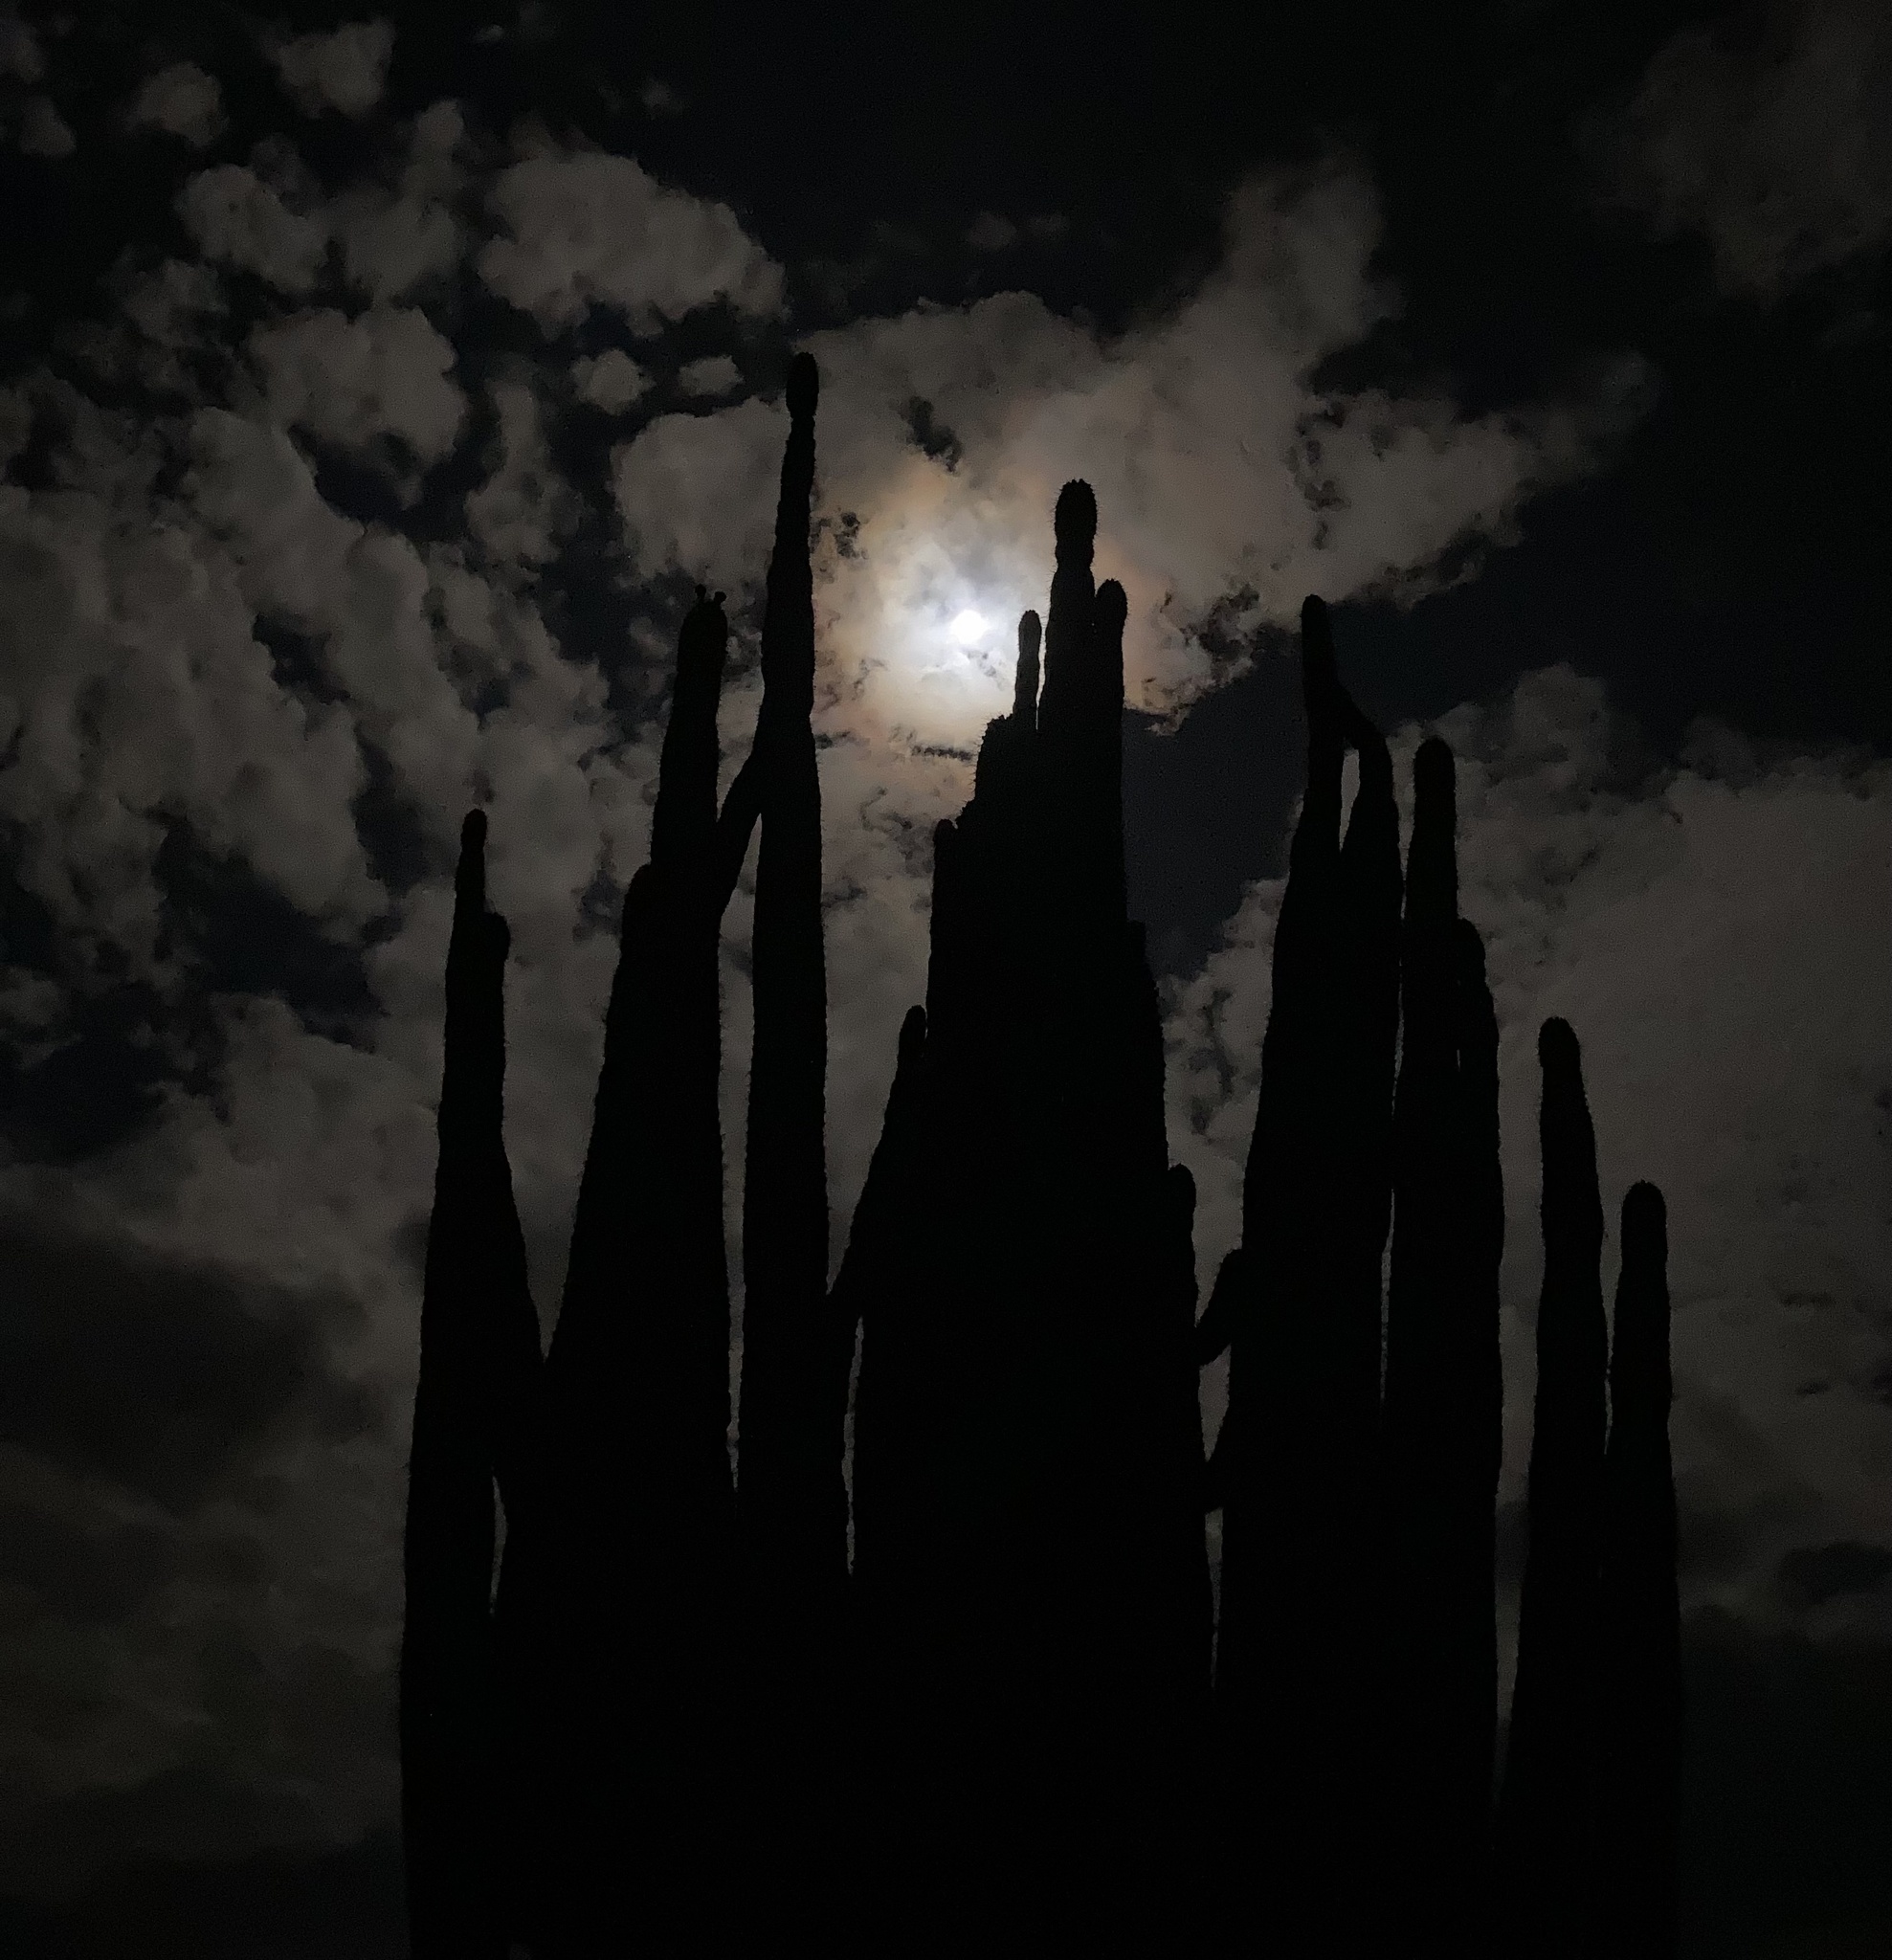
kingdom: Plantae
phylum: Tracheophyta
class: Magnoliopsida
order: Caryophyllales
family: Cactaceae
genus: Stenocereus
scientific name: Stenocereus griseus
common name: Tall candelabra cactus
